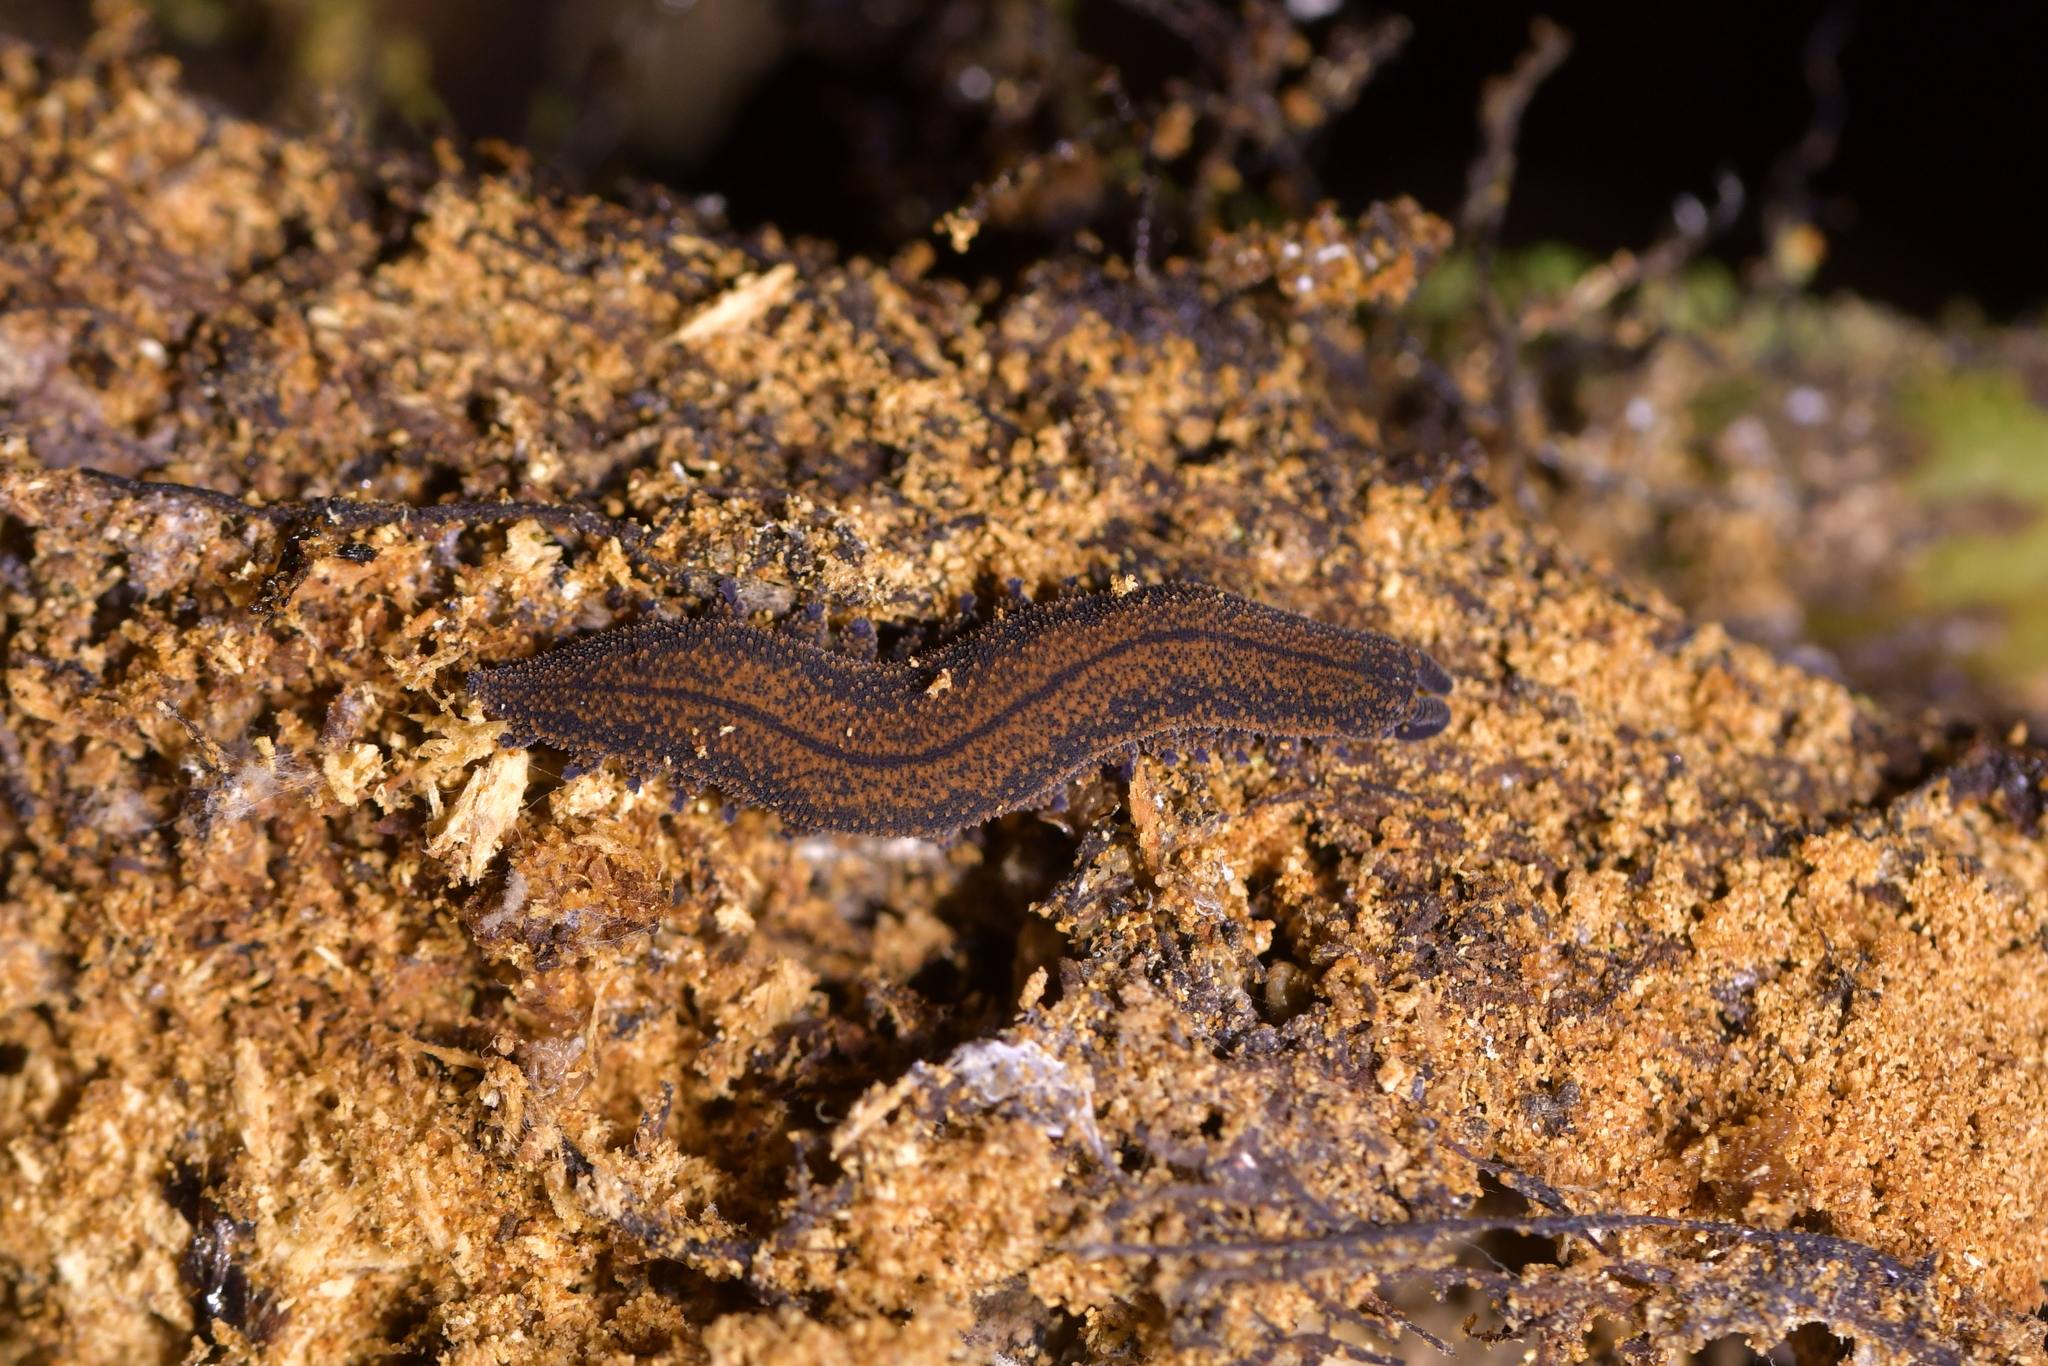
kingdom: Animalia
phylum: Onychophora
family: Peripatopsidae
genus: Peripatoides
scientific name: Peripatoides novaezealandiae
